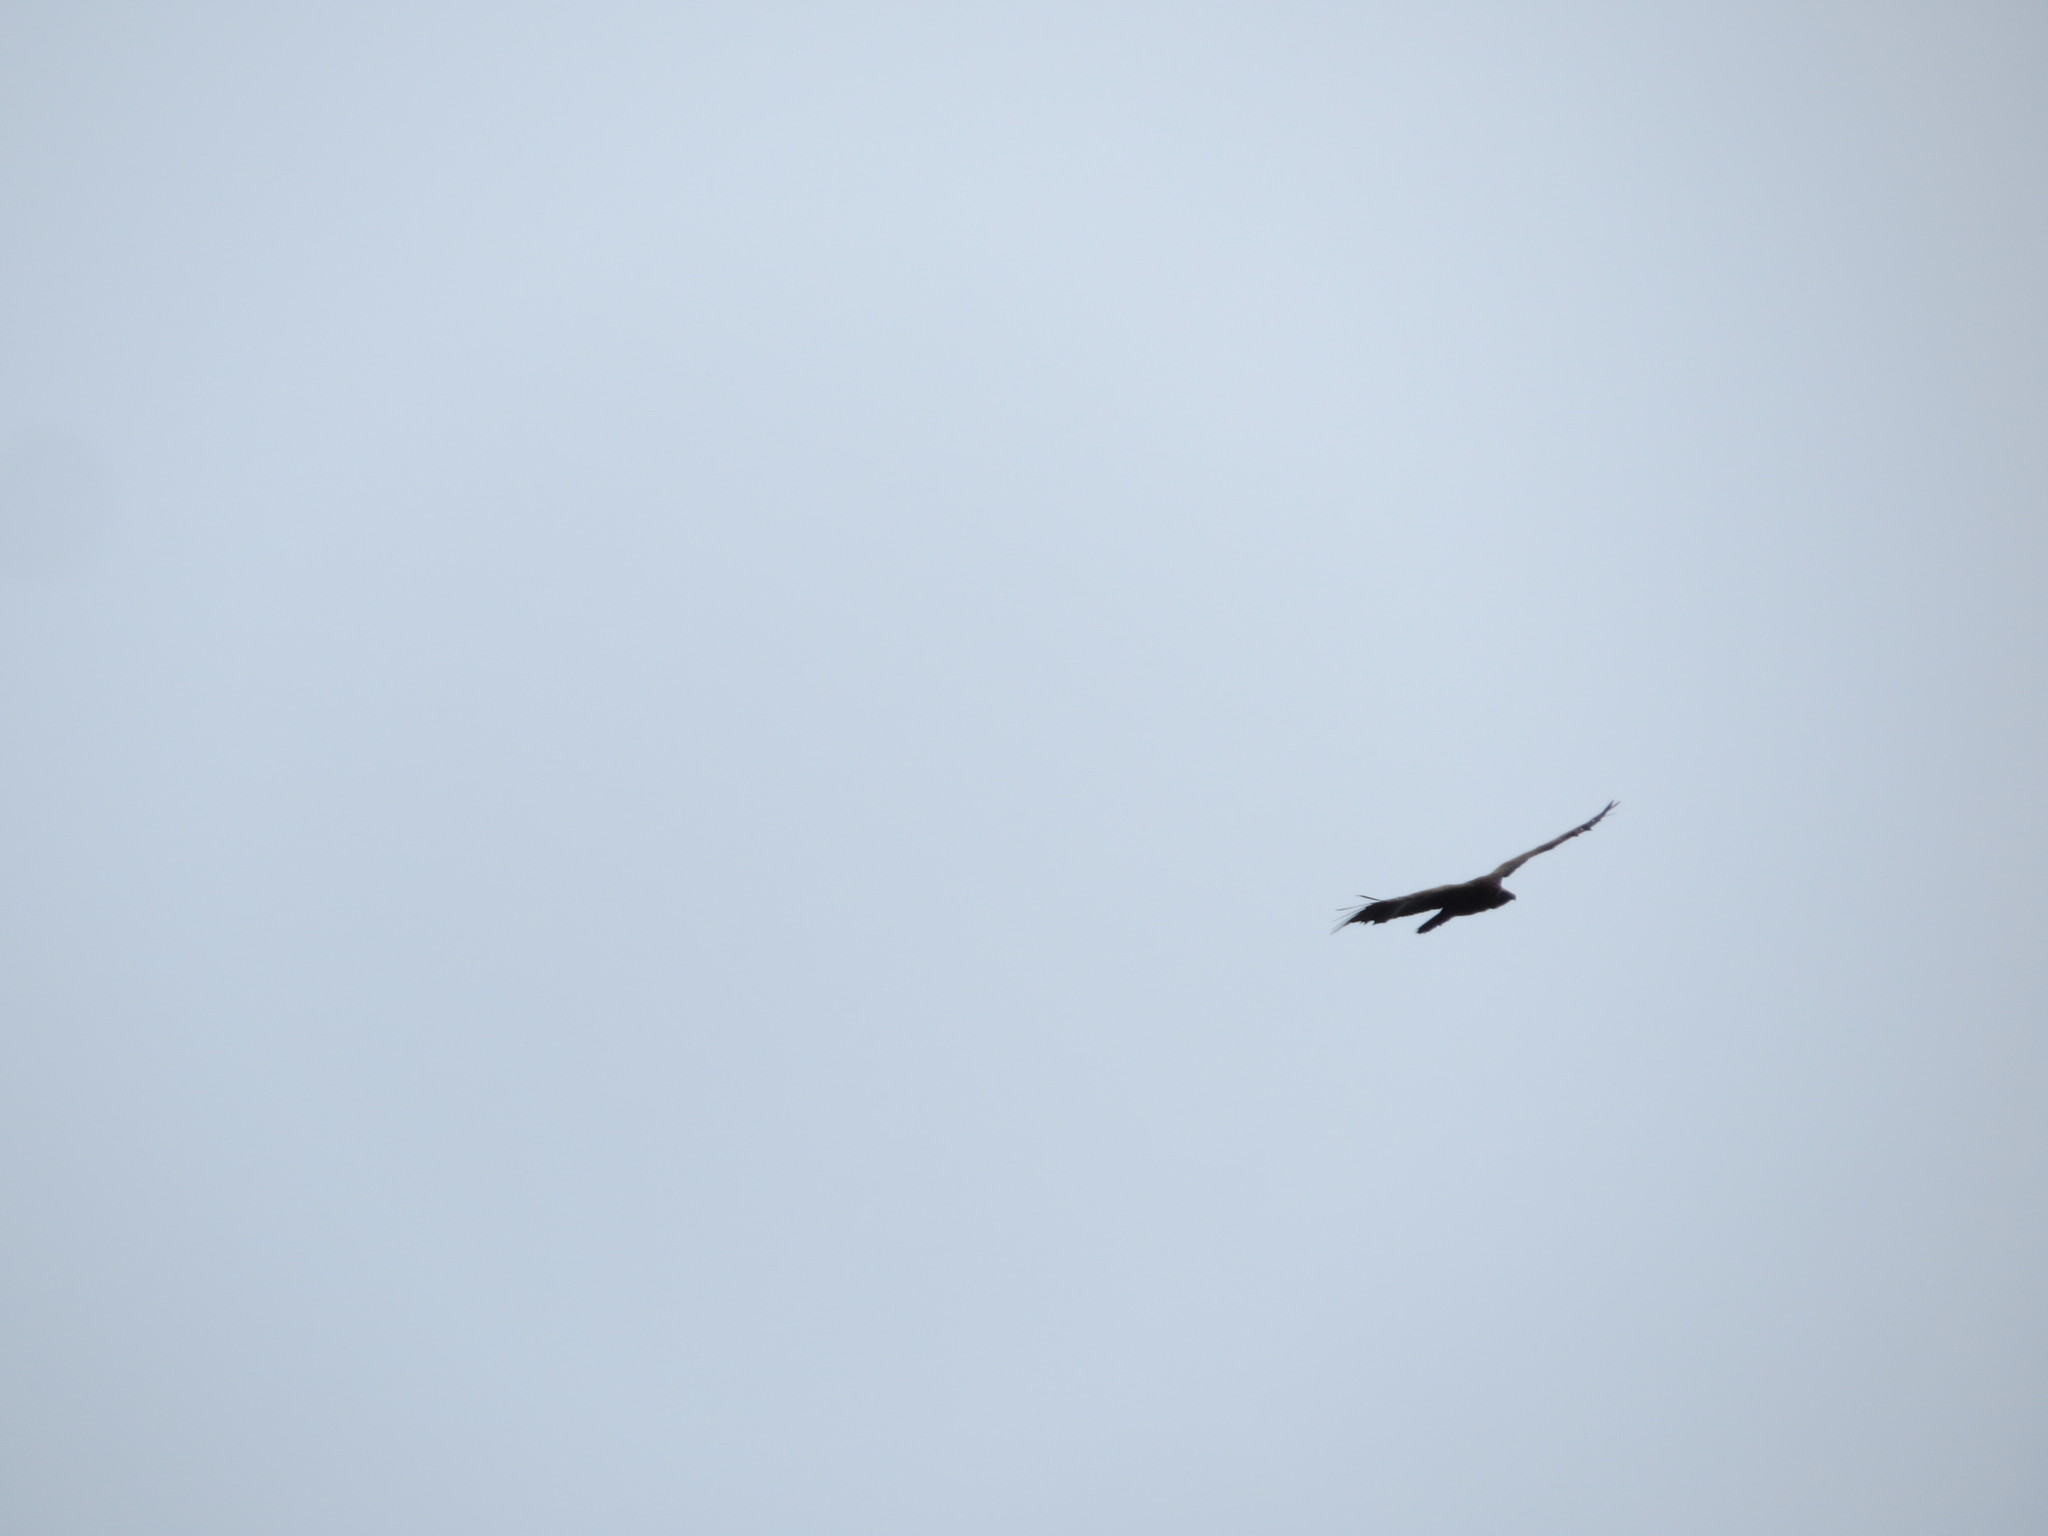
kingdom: Animalia
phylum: Chordata
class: Aves
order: Accipitriformes
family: Accipitridae
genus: Gyps
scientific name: Gyps africanus
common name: White-backed vulture
